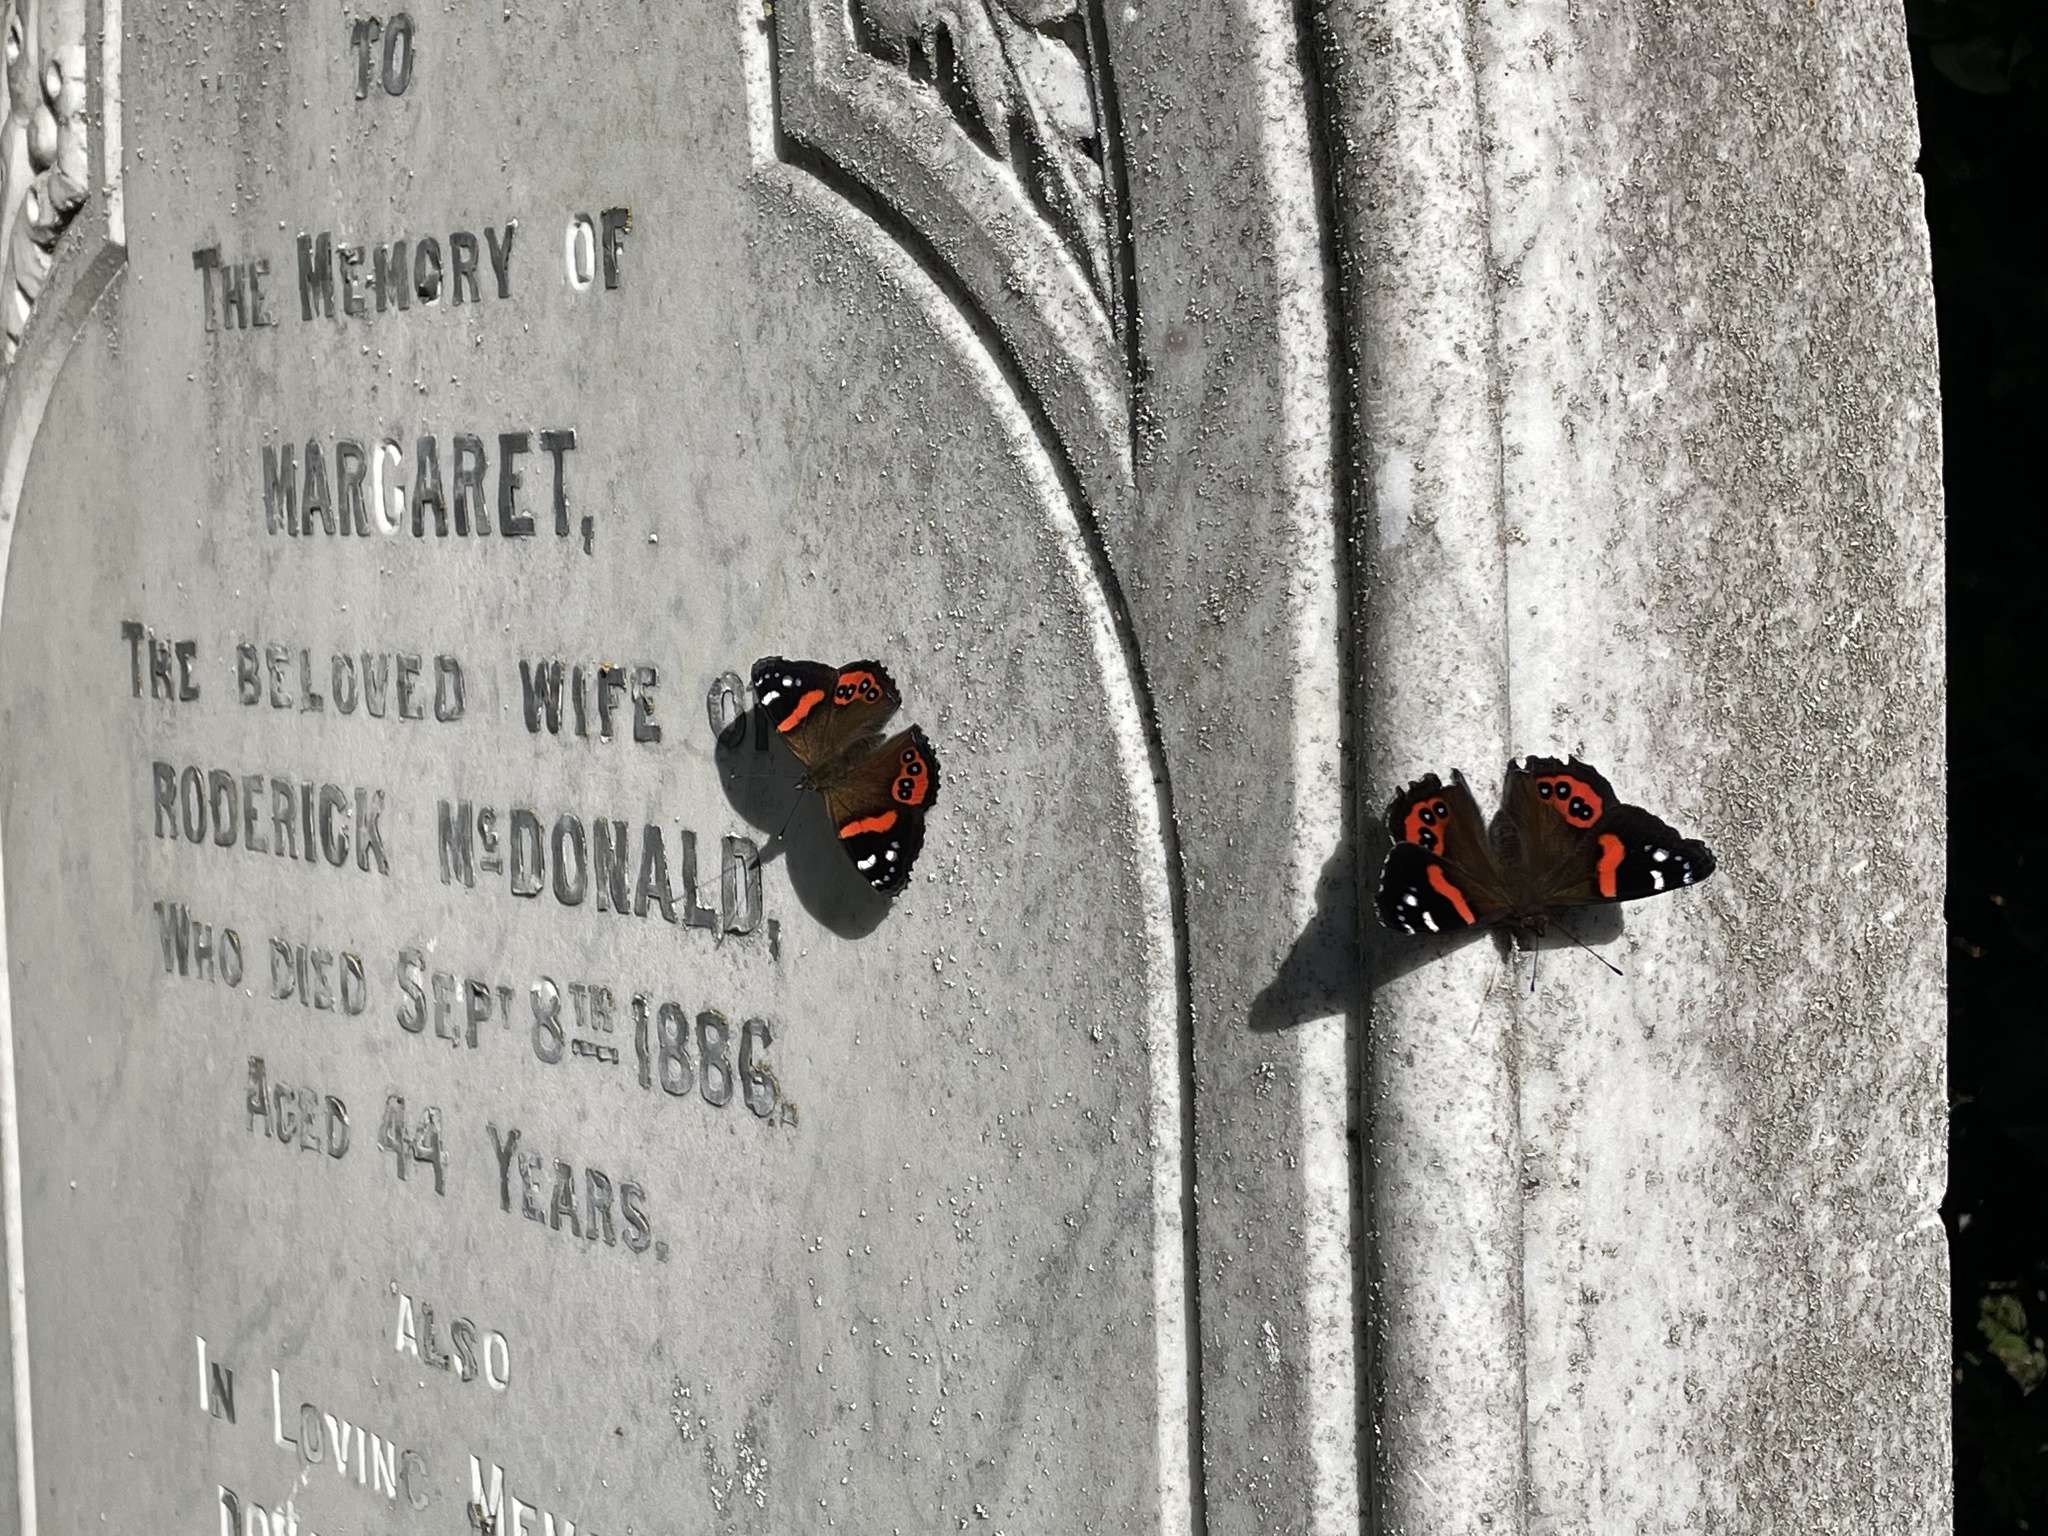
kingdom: Animalia
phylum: Arthropoda
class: Insecta
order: Lepidoptera
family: Nymphalidae
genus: Vanessa
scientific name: Vanessa gonerilla
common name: New zealand red admiral
